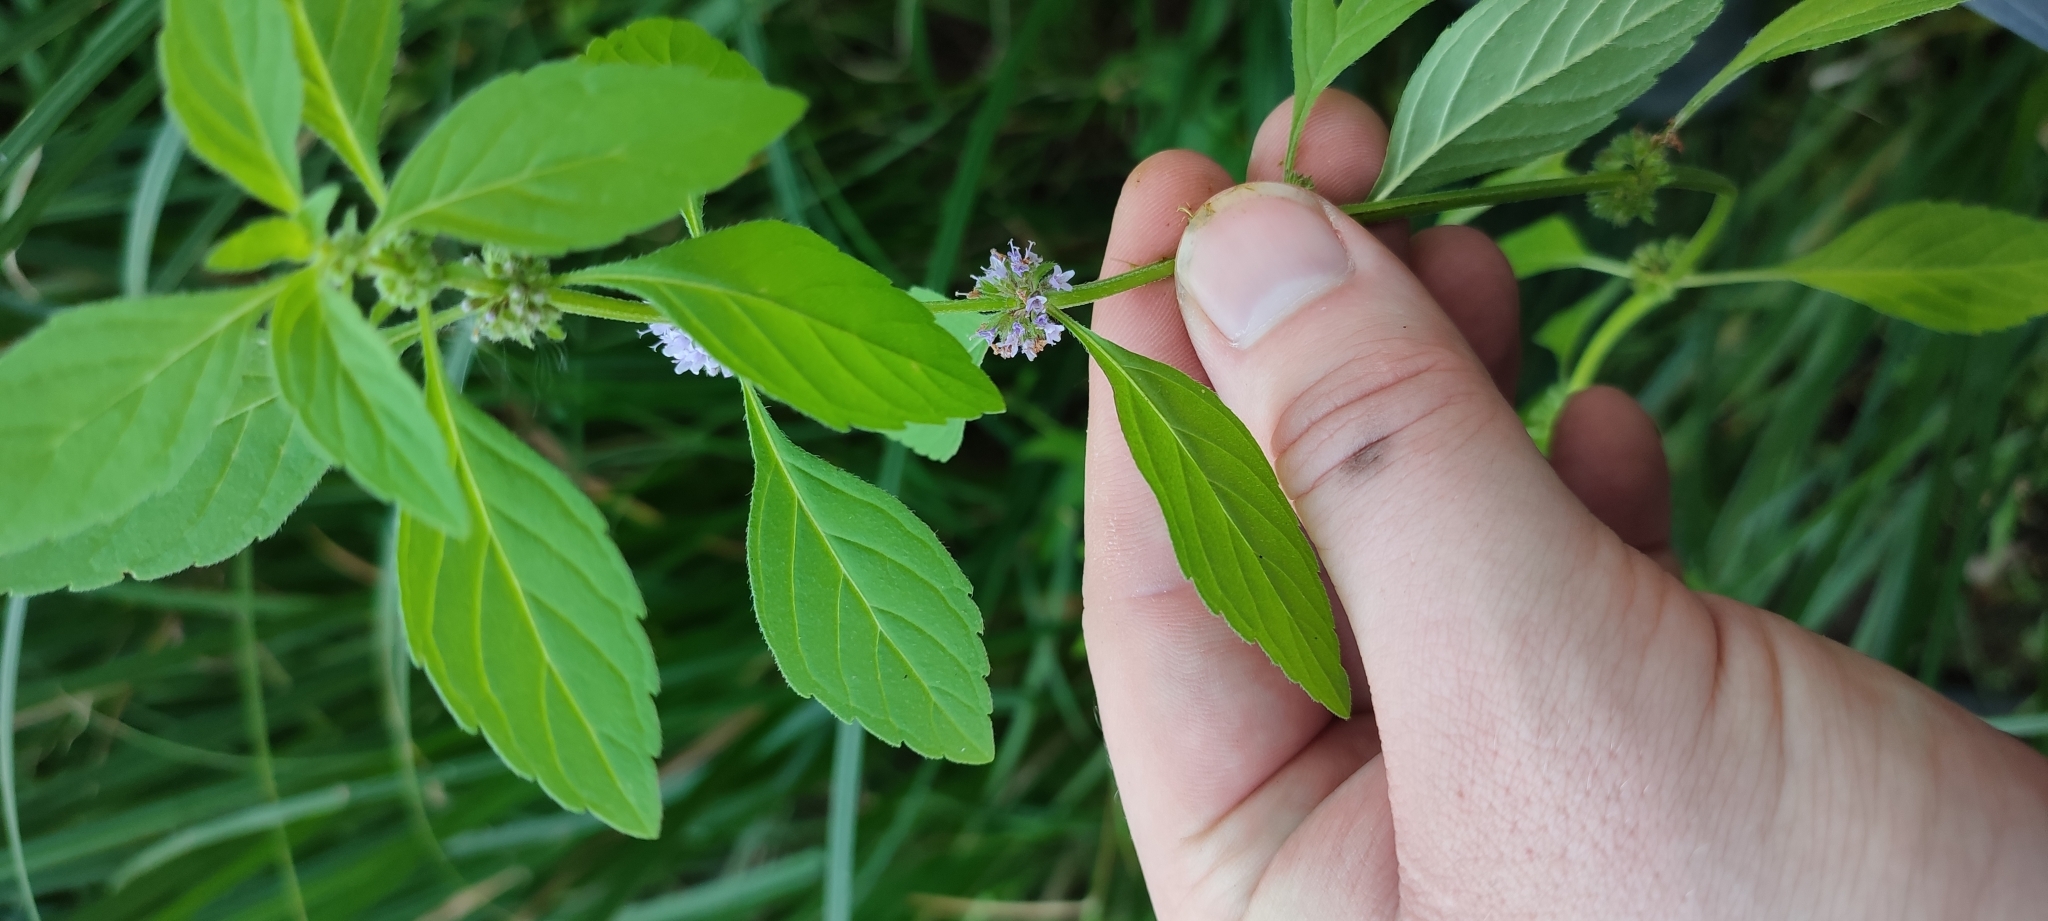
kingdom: Plantae
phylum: Tracheophyta
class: Magnoliopsida
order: Lamiales
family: Lamiaceae
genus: Mentha
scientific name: Mentha arvensis
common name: Corn mint
